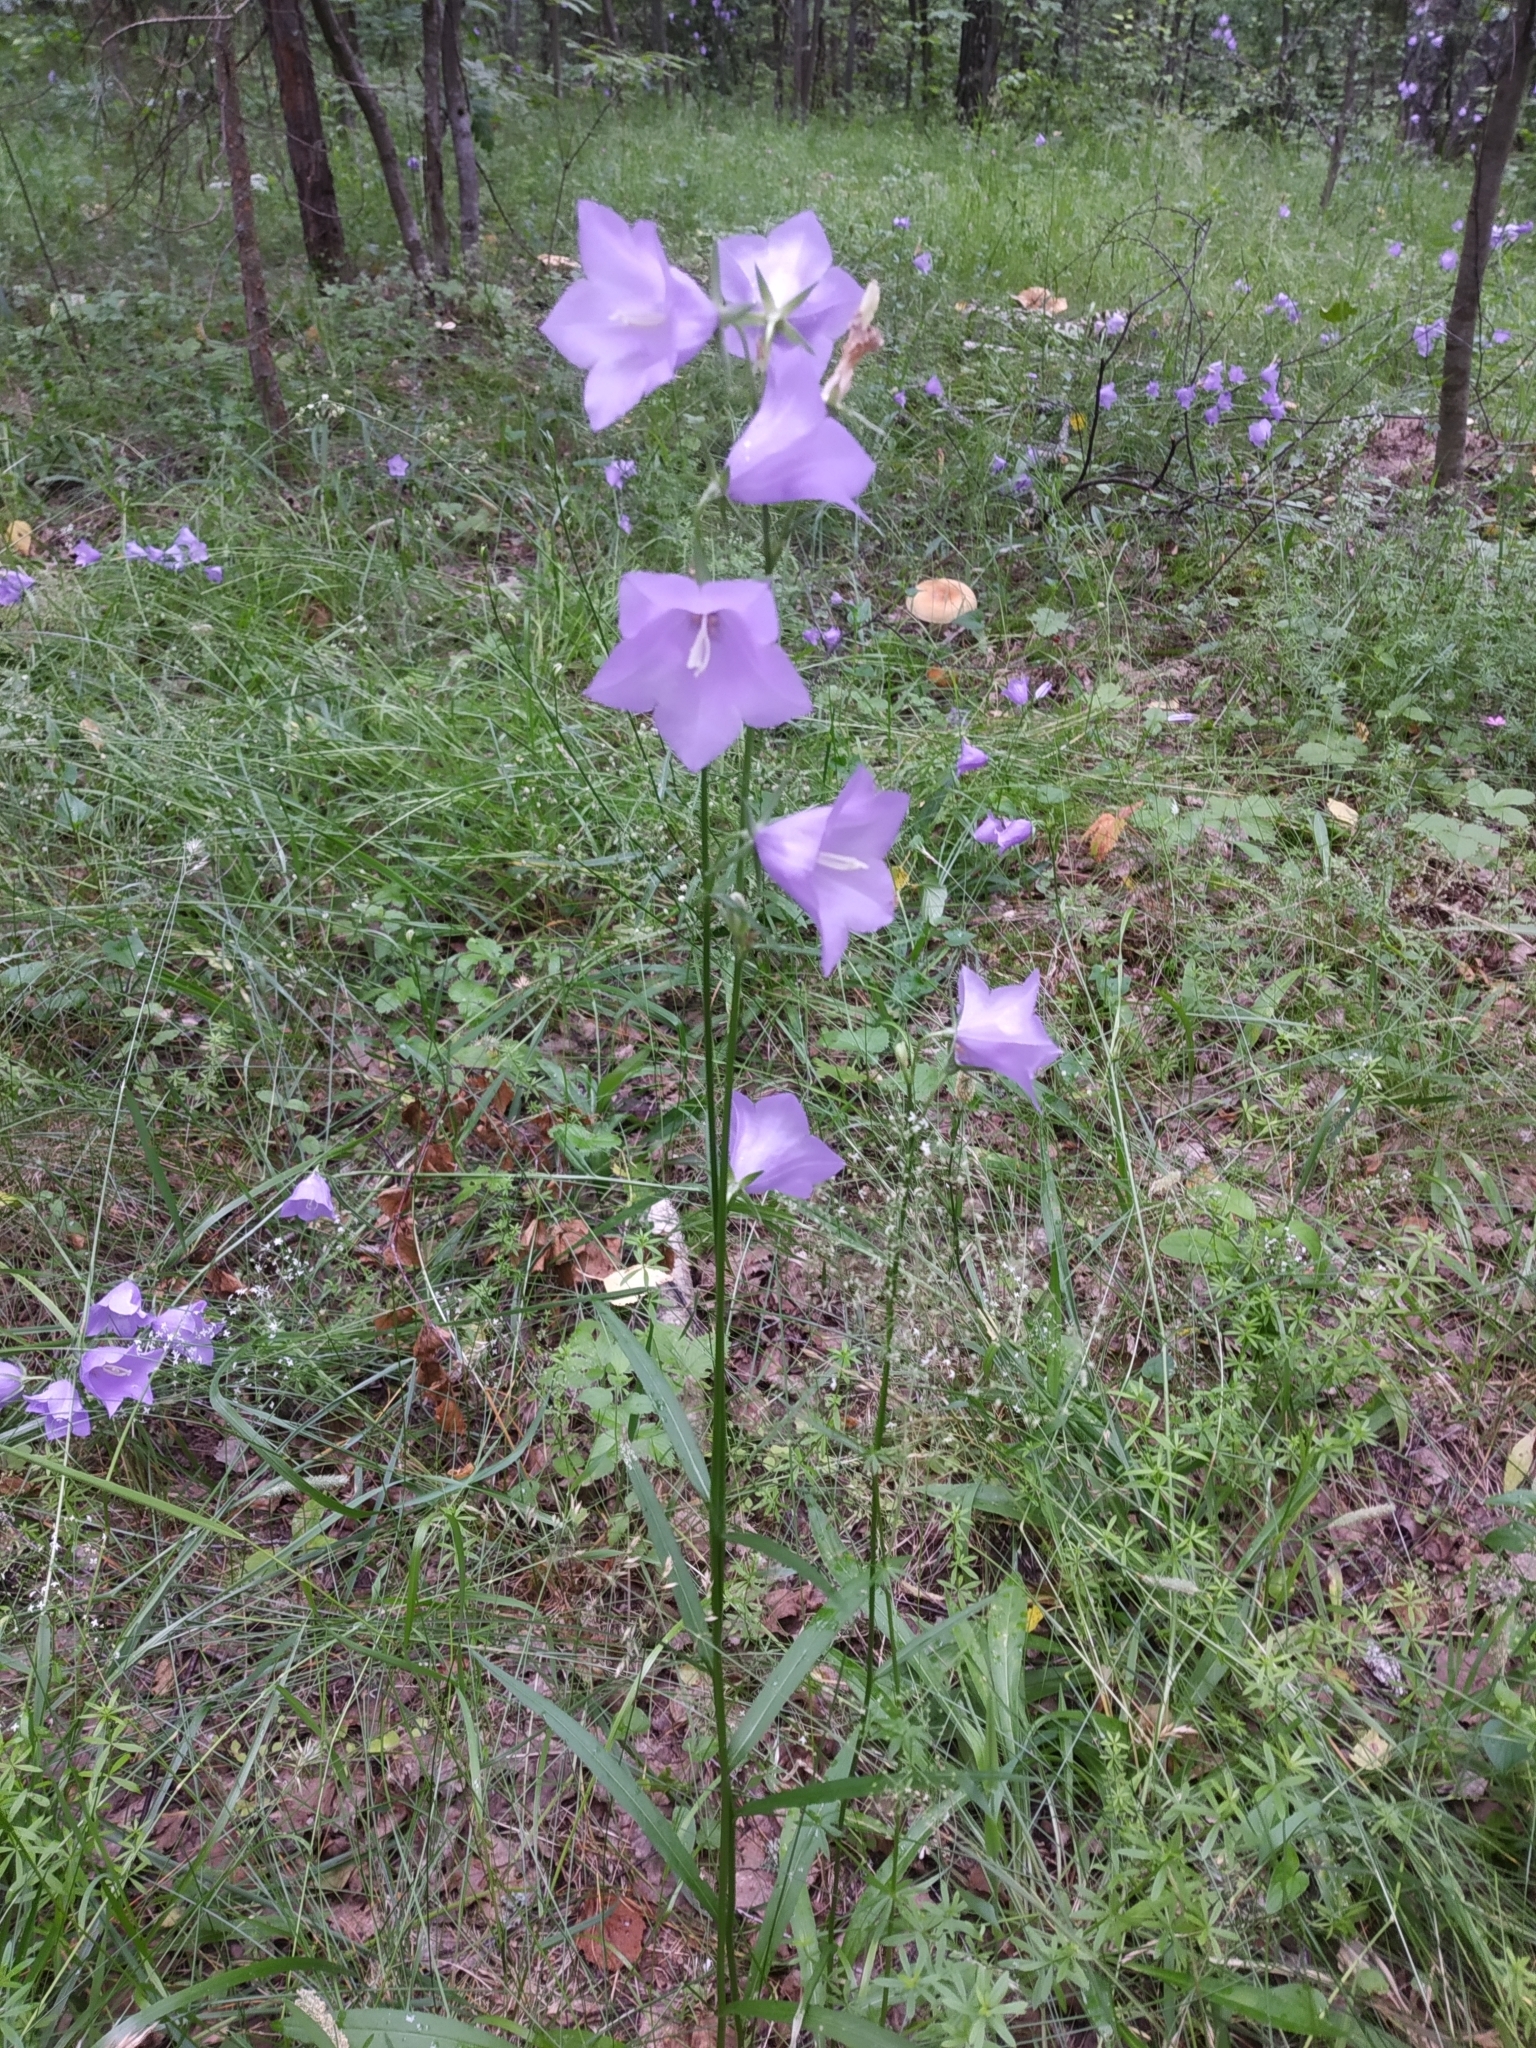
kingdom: Plantae
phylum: Tracheophyta
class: Magnoliopsida
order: Asterales
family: Campanulaceae
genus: Campanula
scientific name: Campanula persicifolia
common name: Peach-leaved bellflower
